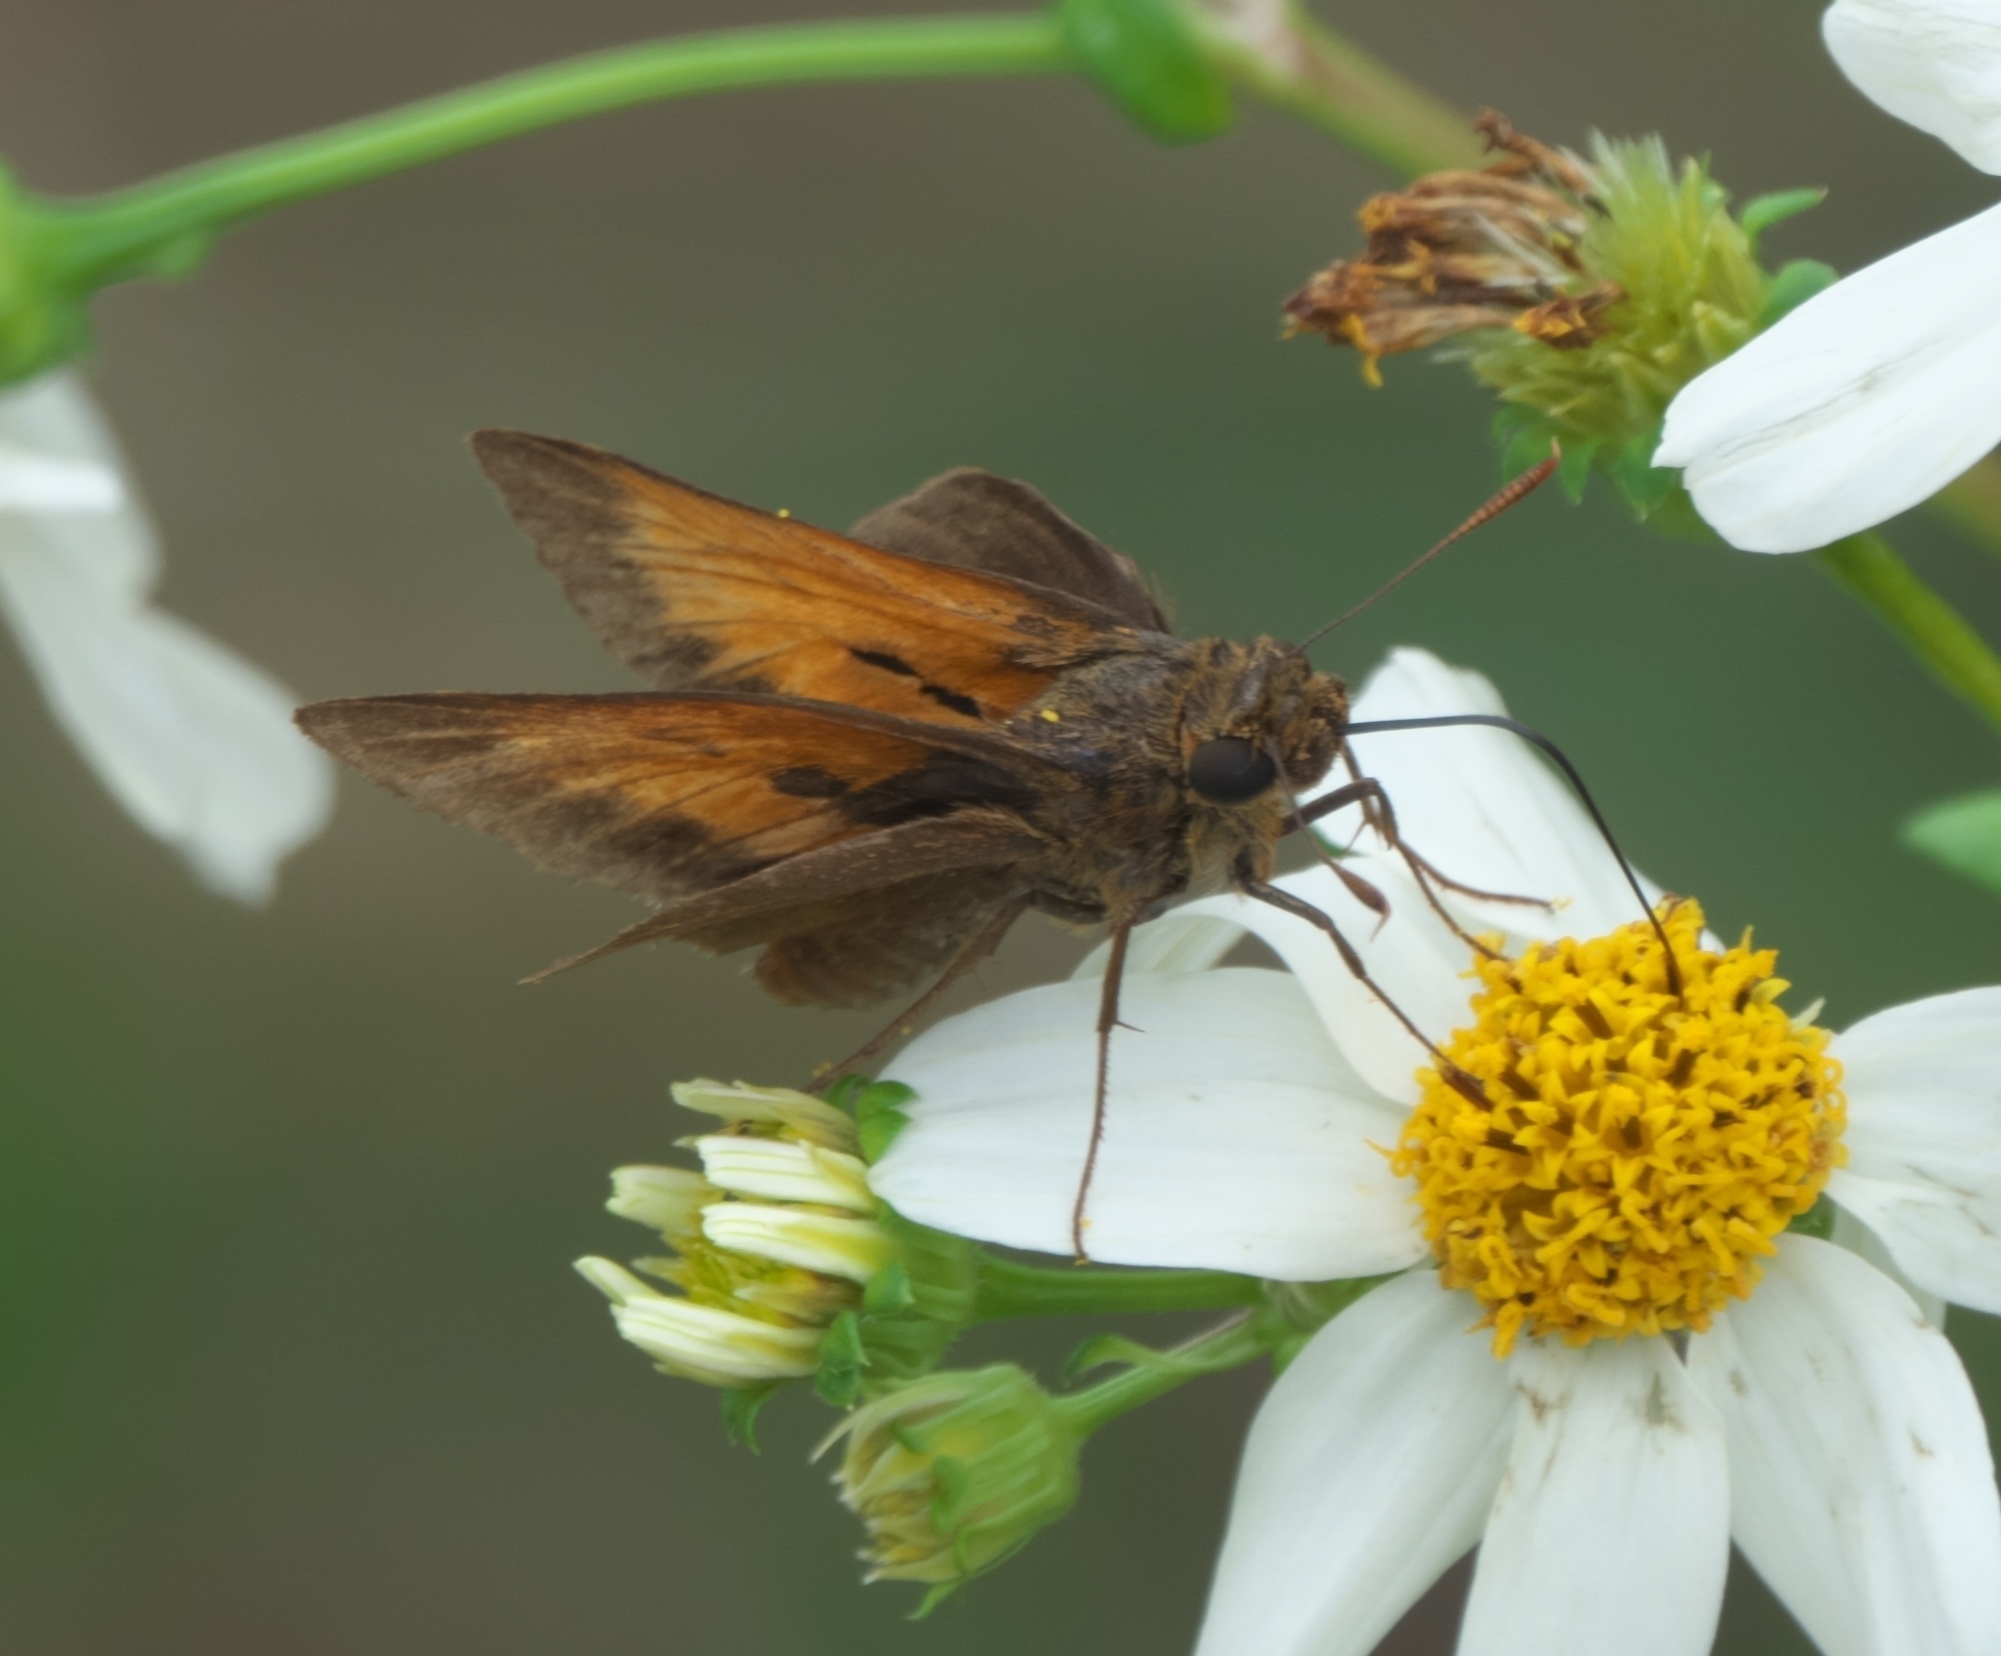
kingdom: Animalia
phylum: Arthropoda
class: Insecta
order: Lepidoptera
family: Hesperiidae
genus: Euphyes
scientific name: Euphyes pilatka
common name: Palatka skipper
